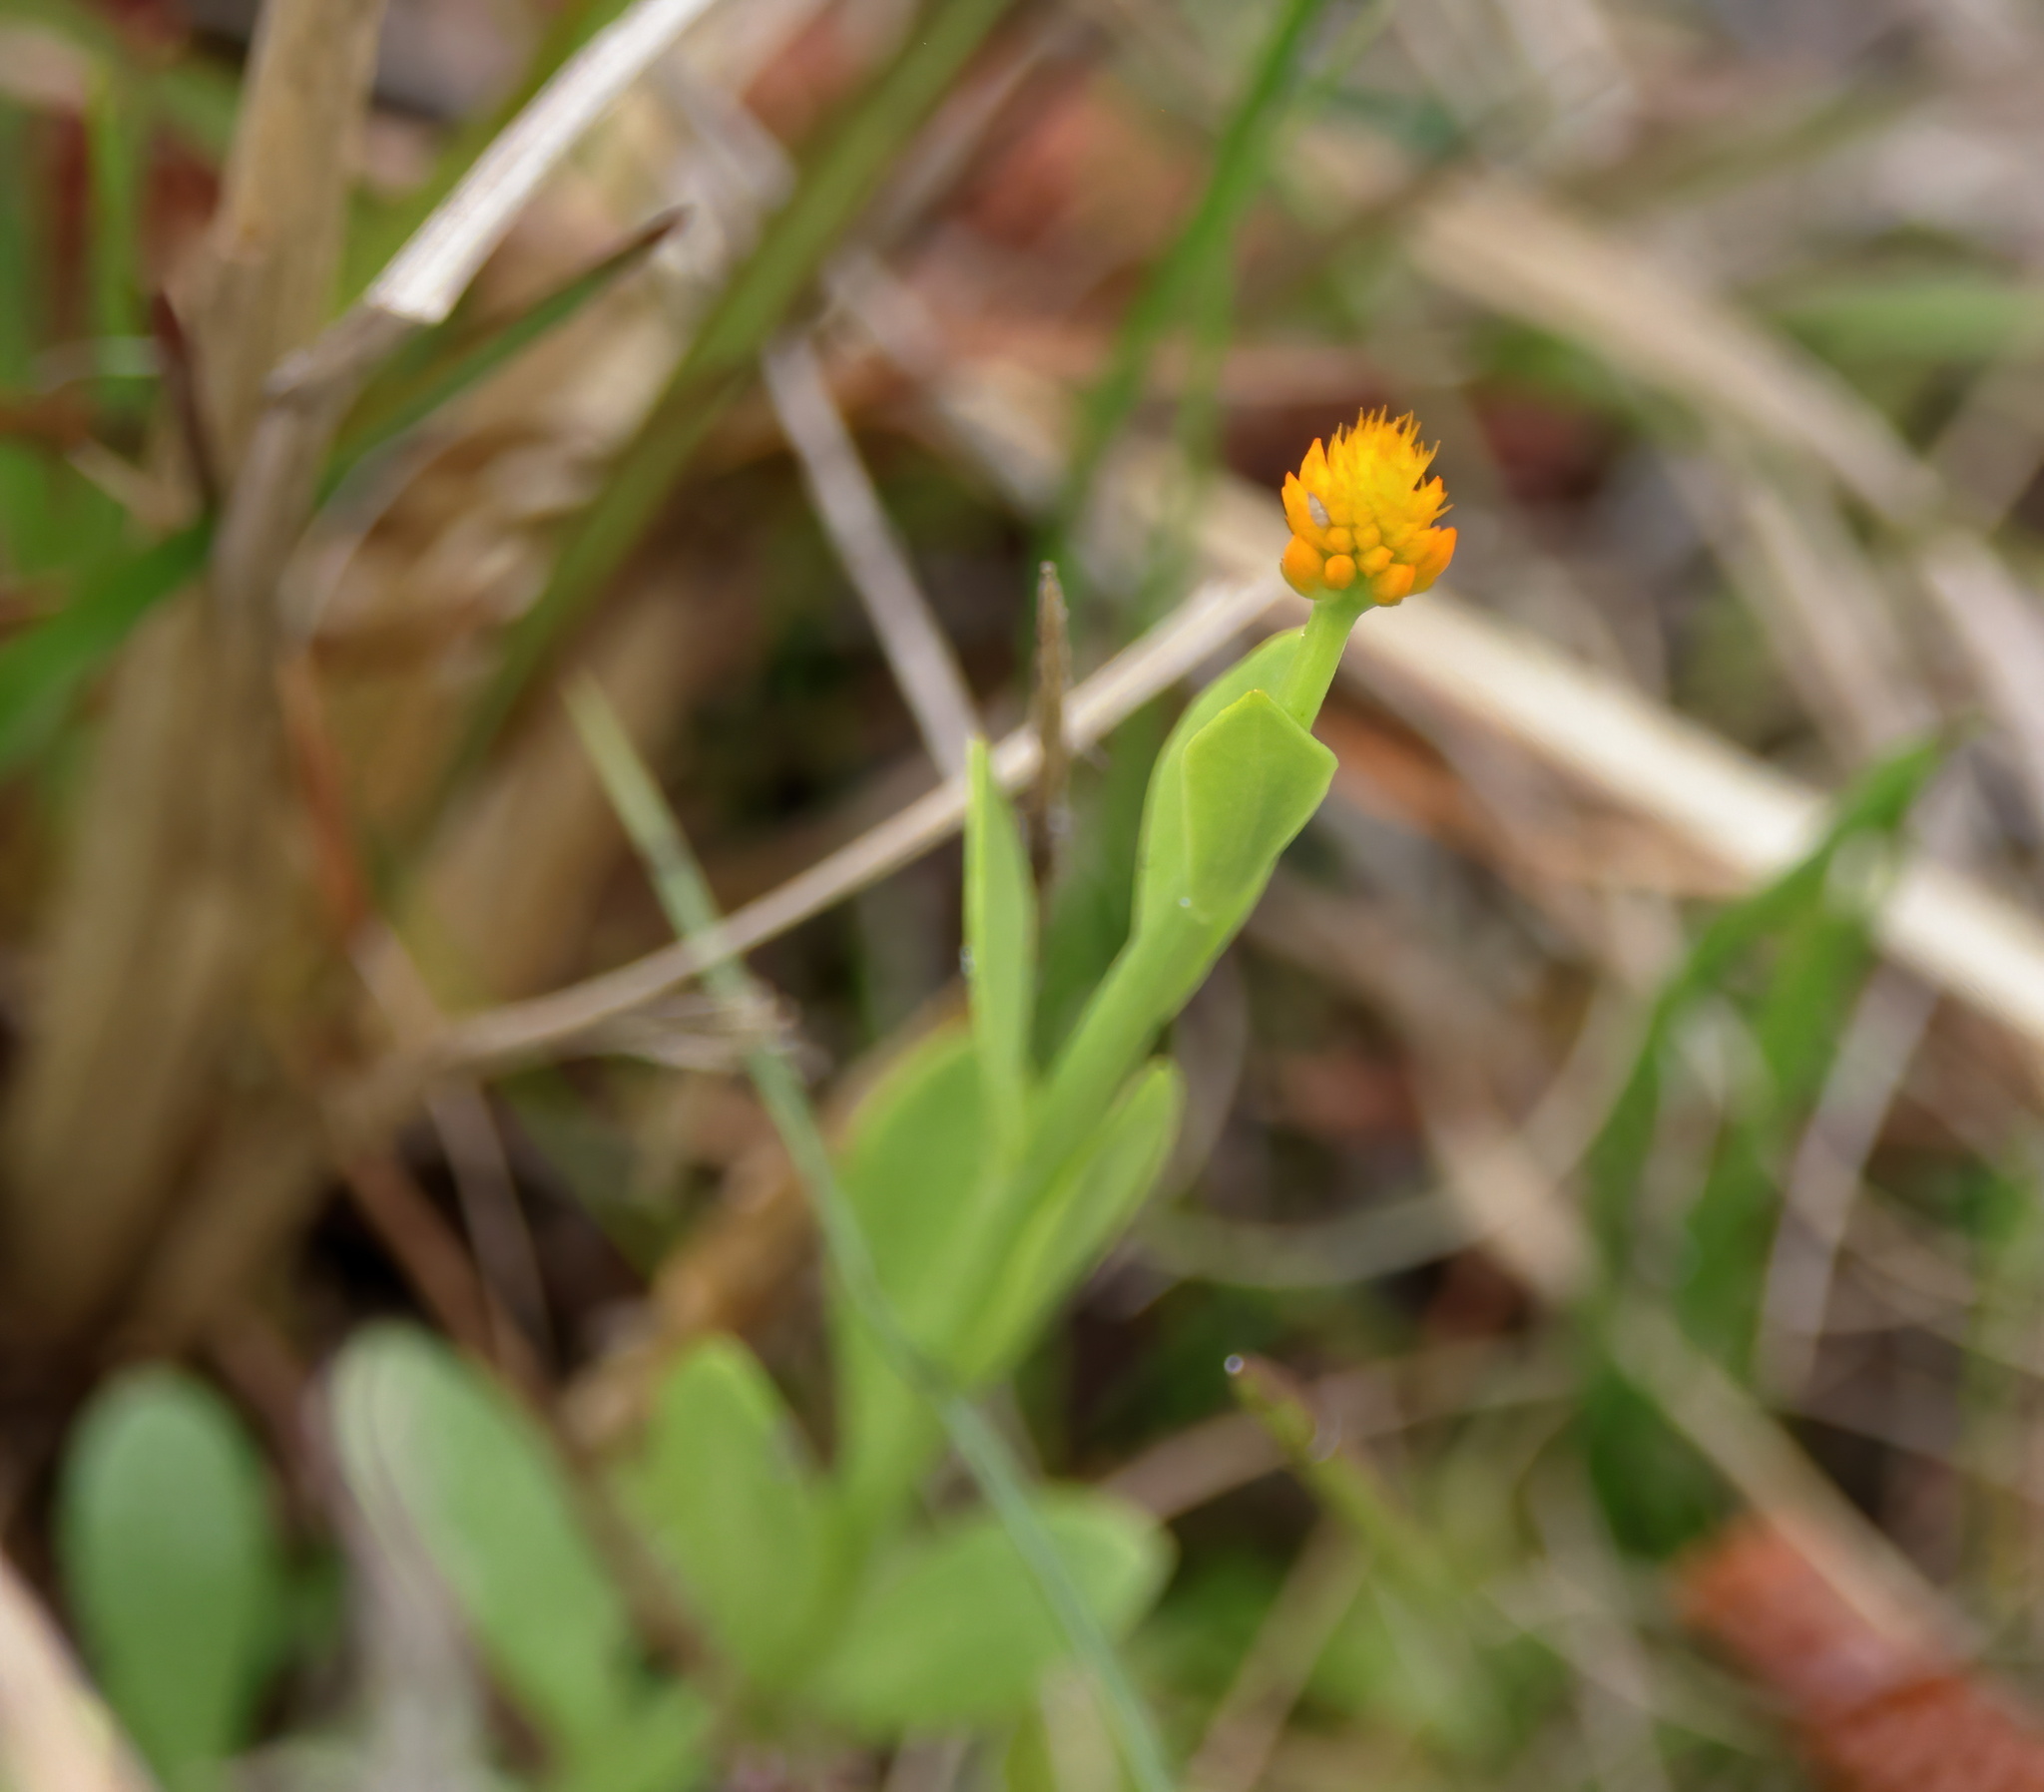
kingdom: Plantae
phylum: Tracheophyta
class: Magnoliopsida
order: Fabales
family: Polygalaceae
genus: Polygala
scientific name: Polygala lutea
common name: Orange milkwort
